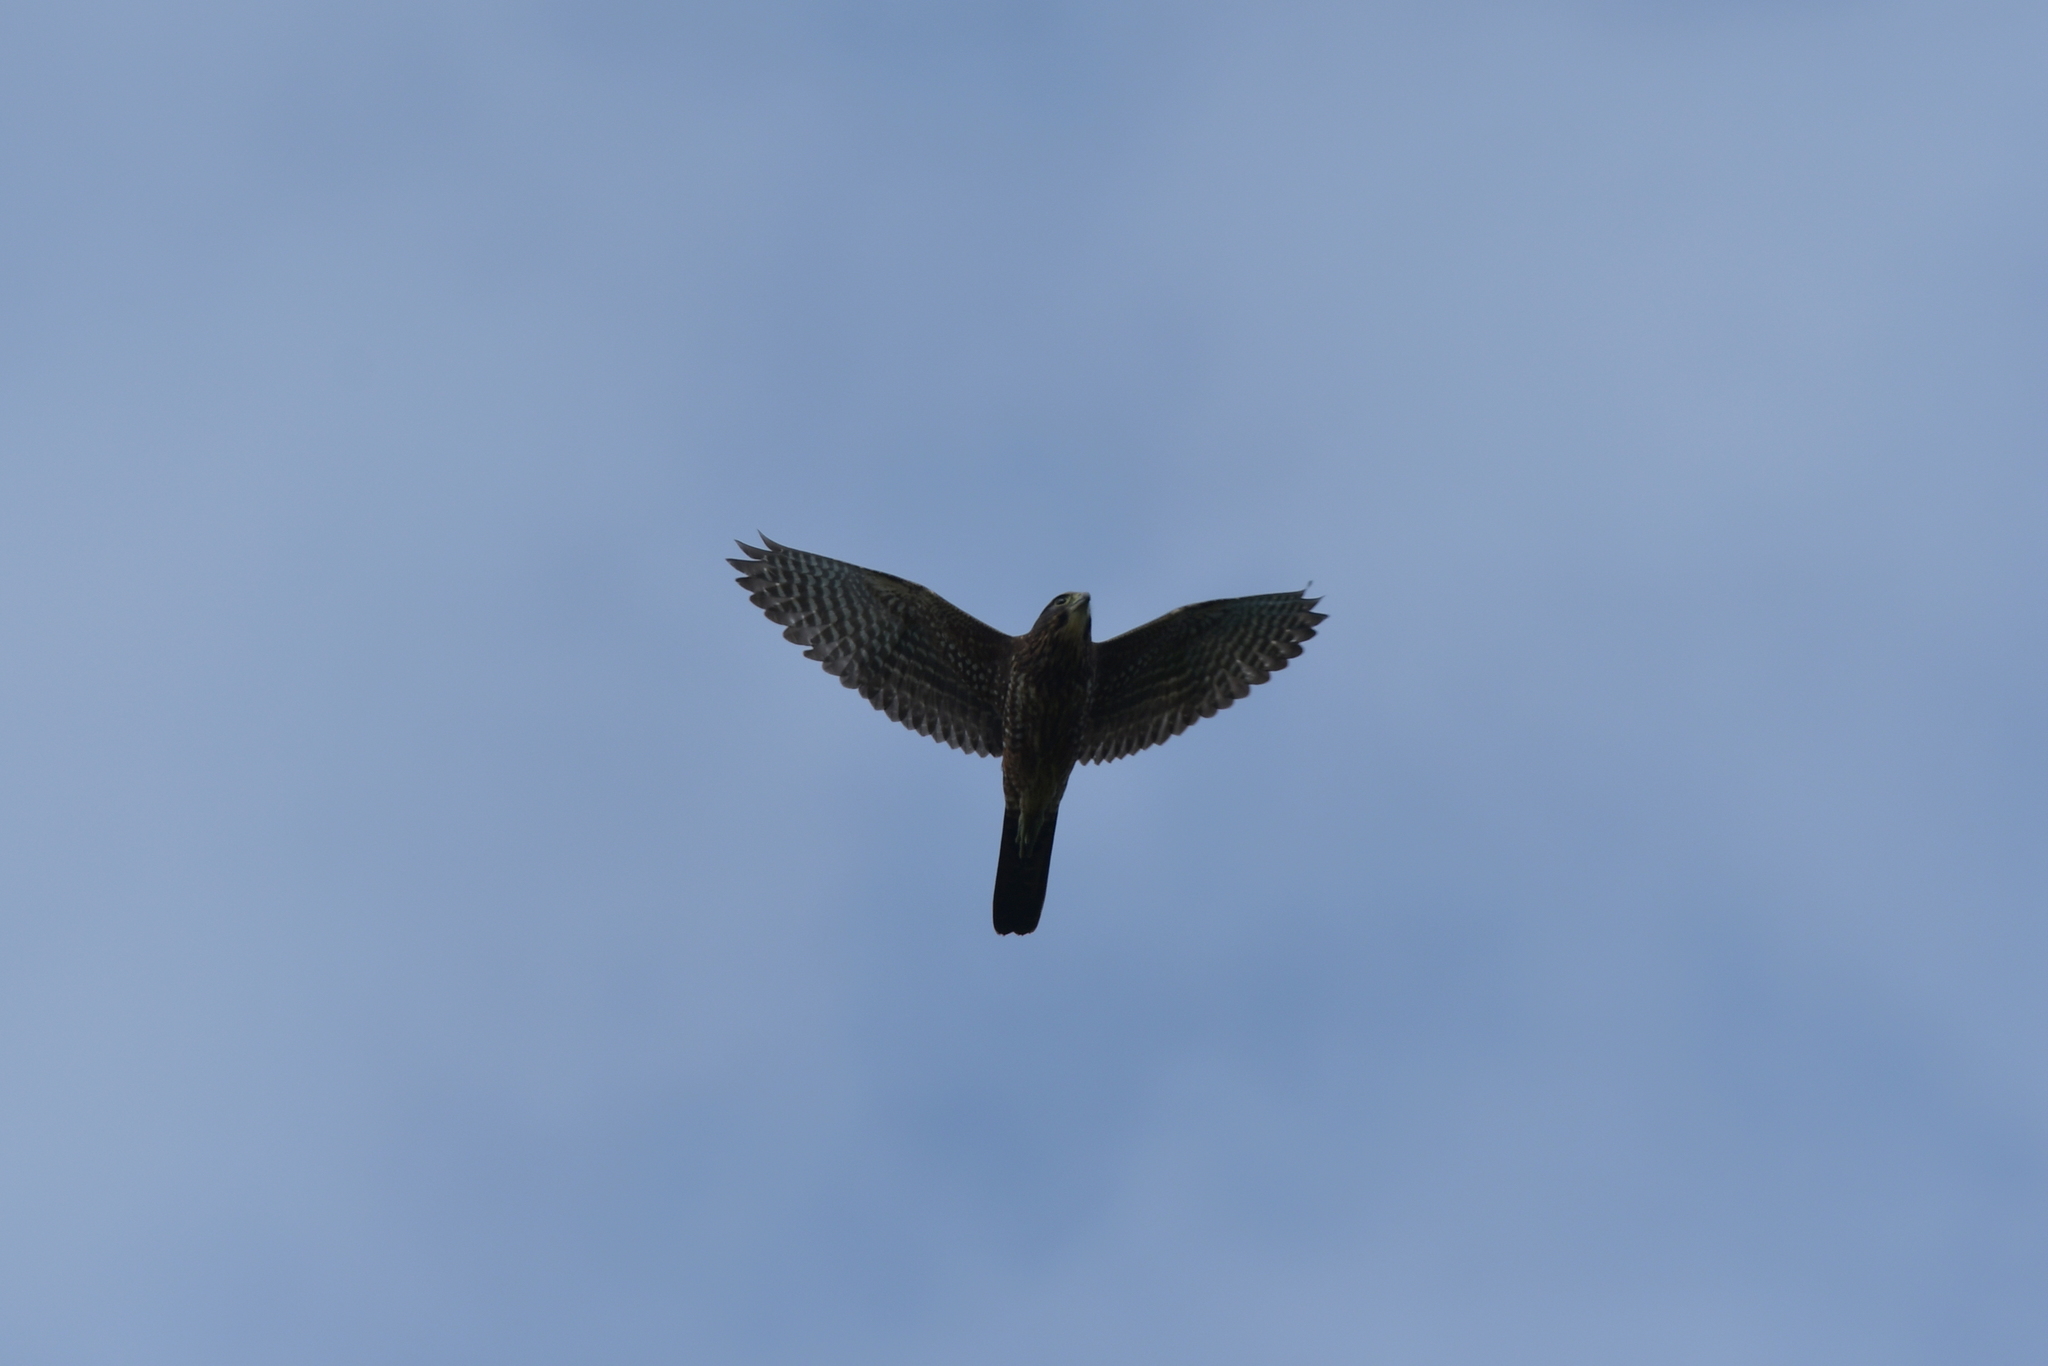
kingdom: Animalia
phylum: Chordata
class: Aves
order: Falconiformes
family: Falconidae
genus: Falco
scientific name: Falco novaeseelandiae
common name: New zealand falcon
